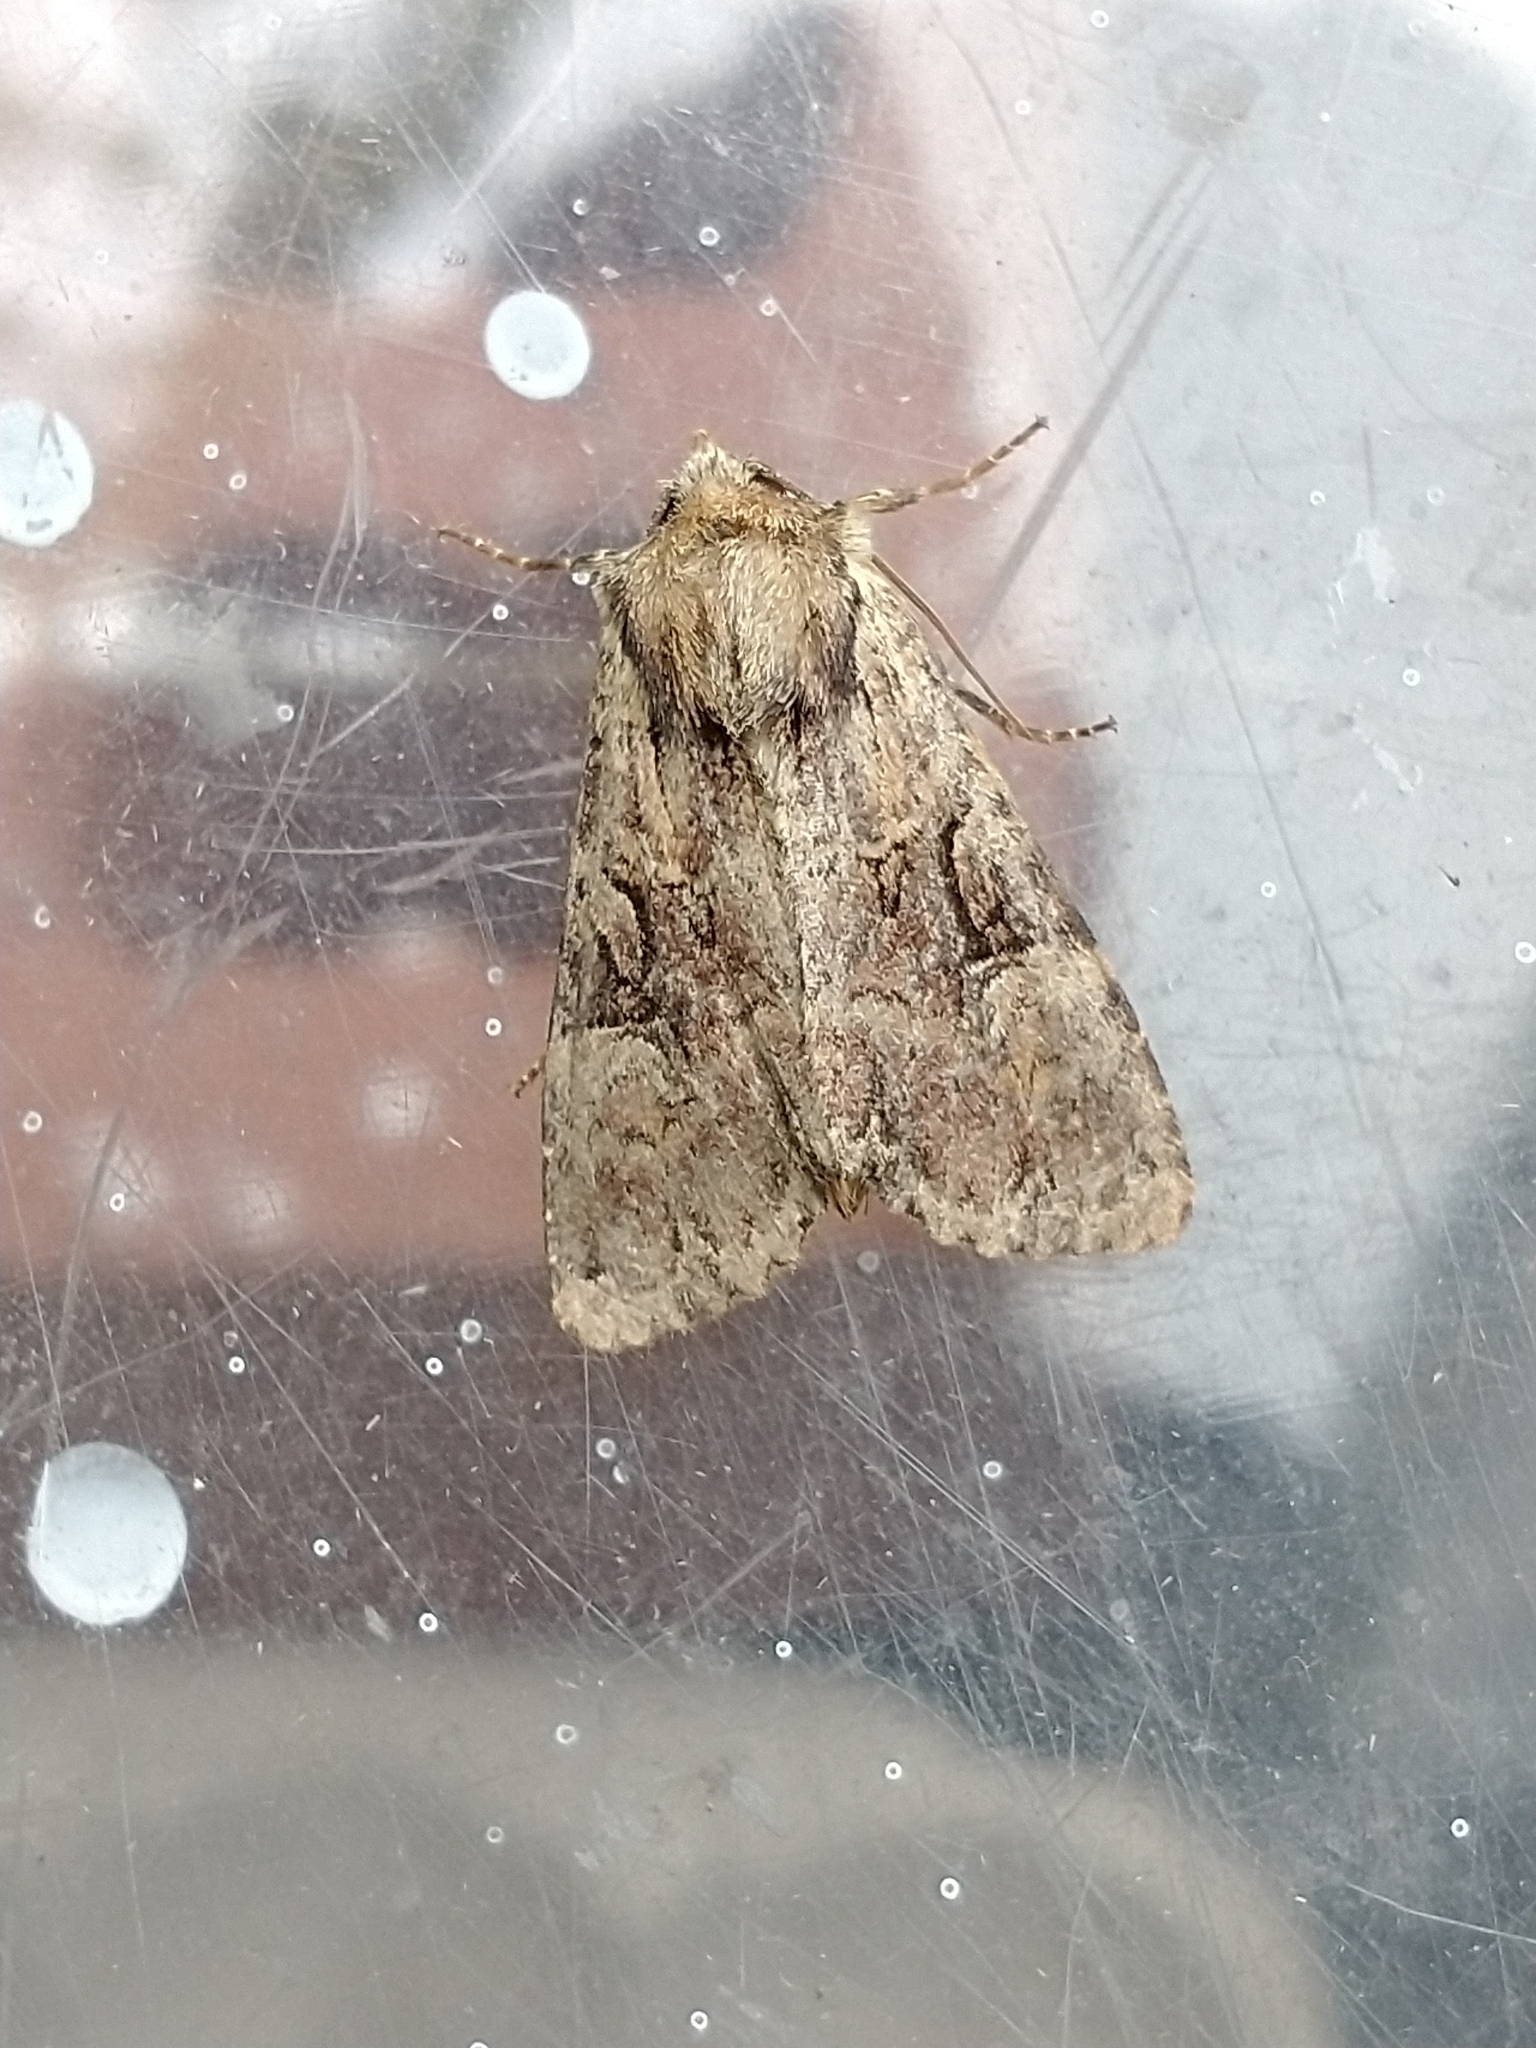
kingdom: Animalia
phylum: Arthropoda
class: Insecta
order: Lepidoptera
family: Noctuidae
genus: Apamea
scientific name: Apamea epomidion
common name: Clouded brindle
